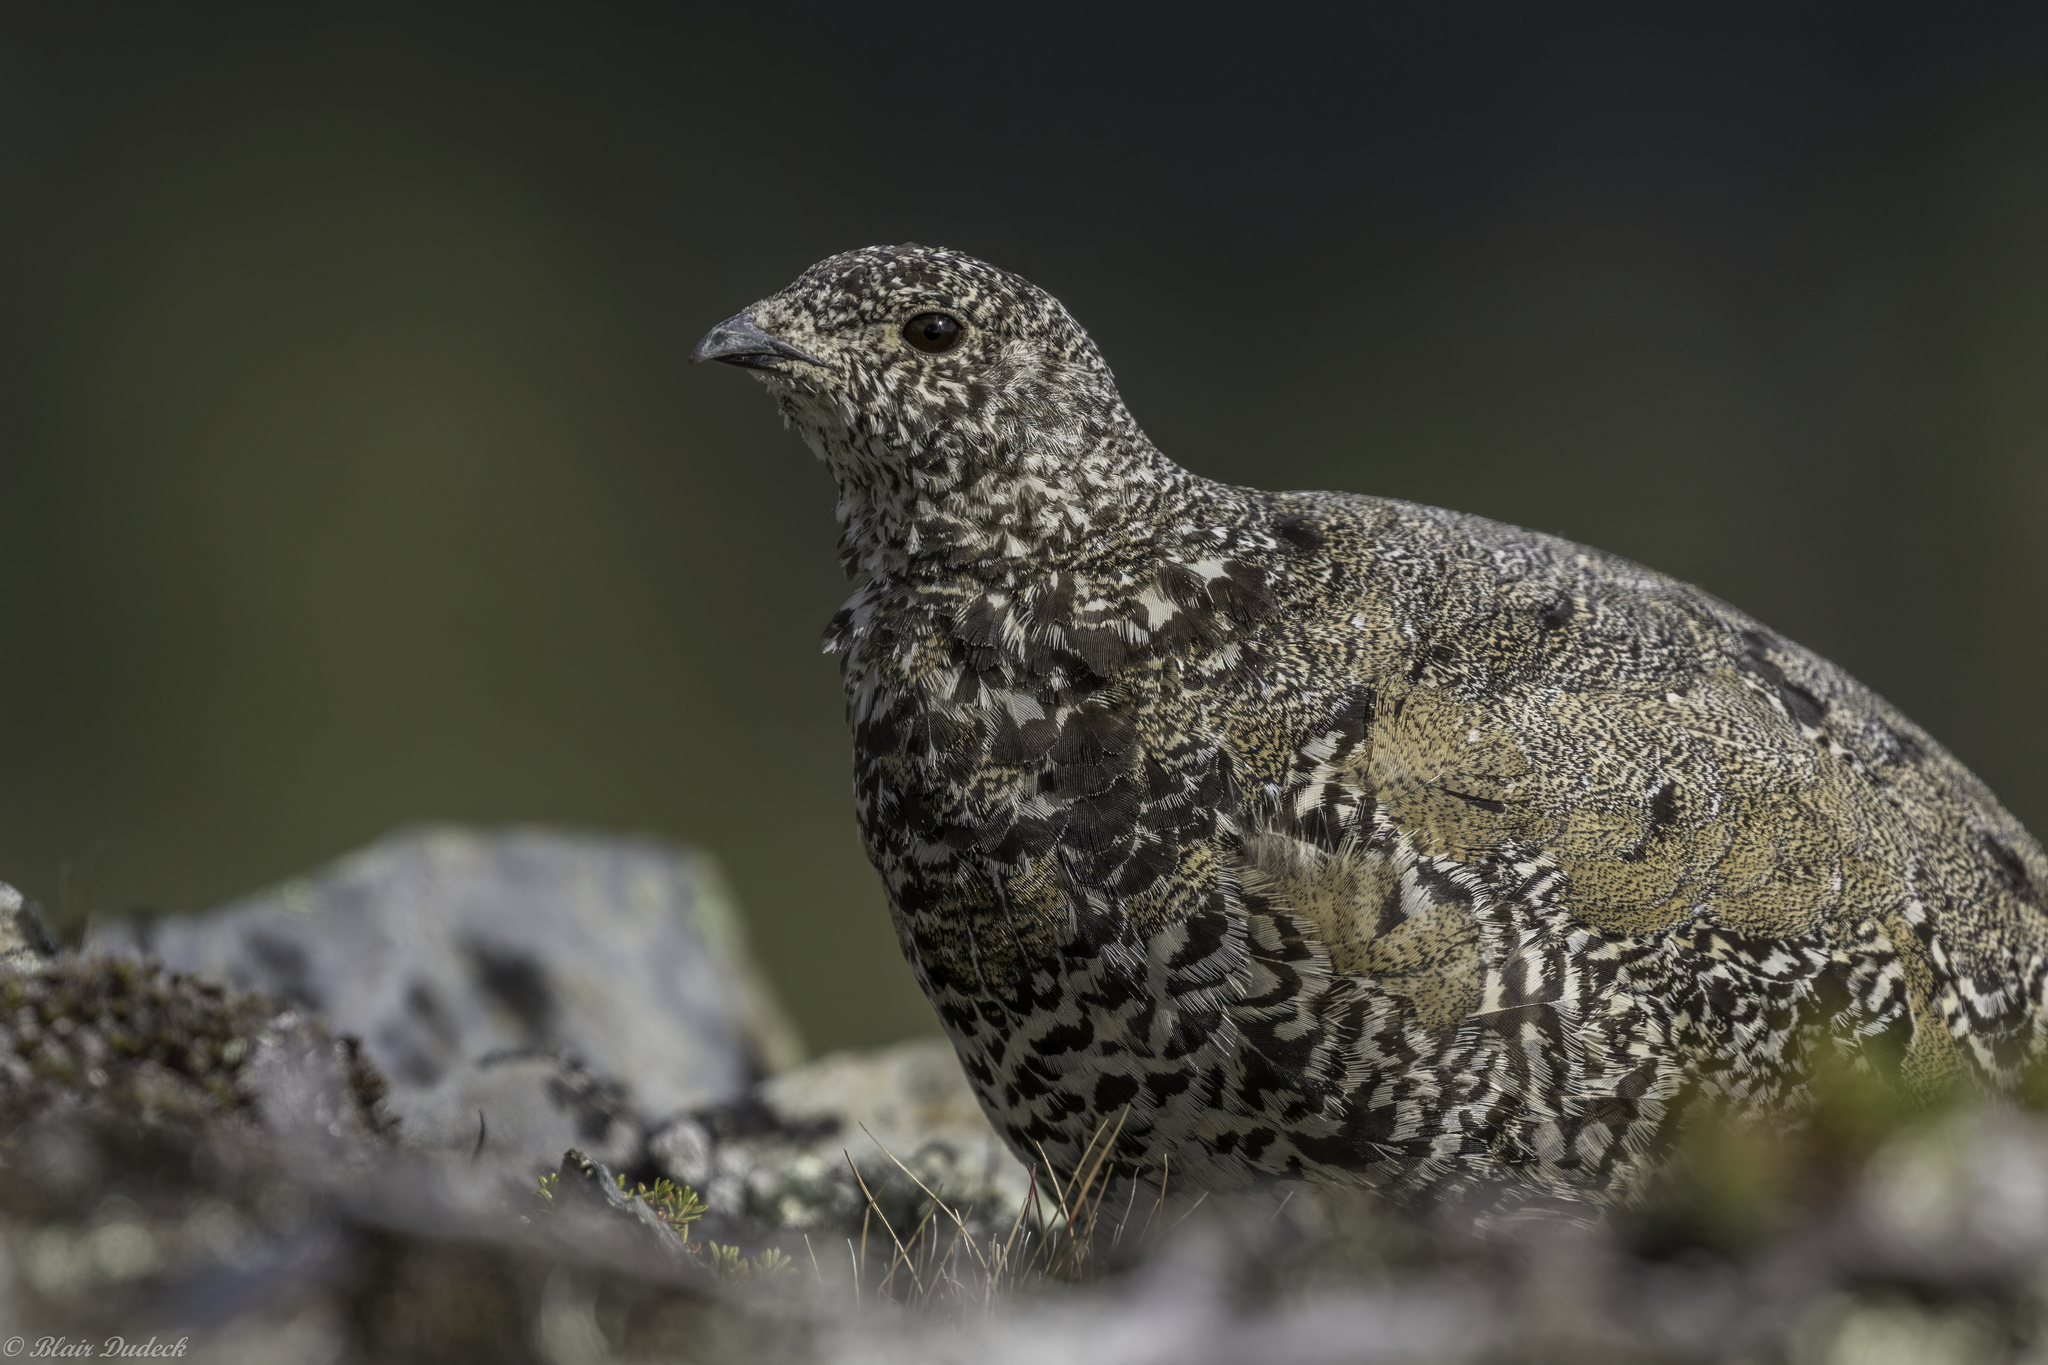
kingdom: Animalia
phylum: Chordata
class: Aves
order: Galliformes
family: Phasianidae
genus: Lagopus
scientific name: Lagopus leucura
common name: White-tailed ptarmigan
